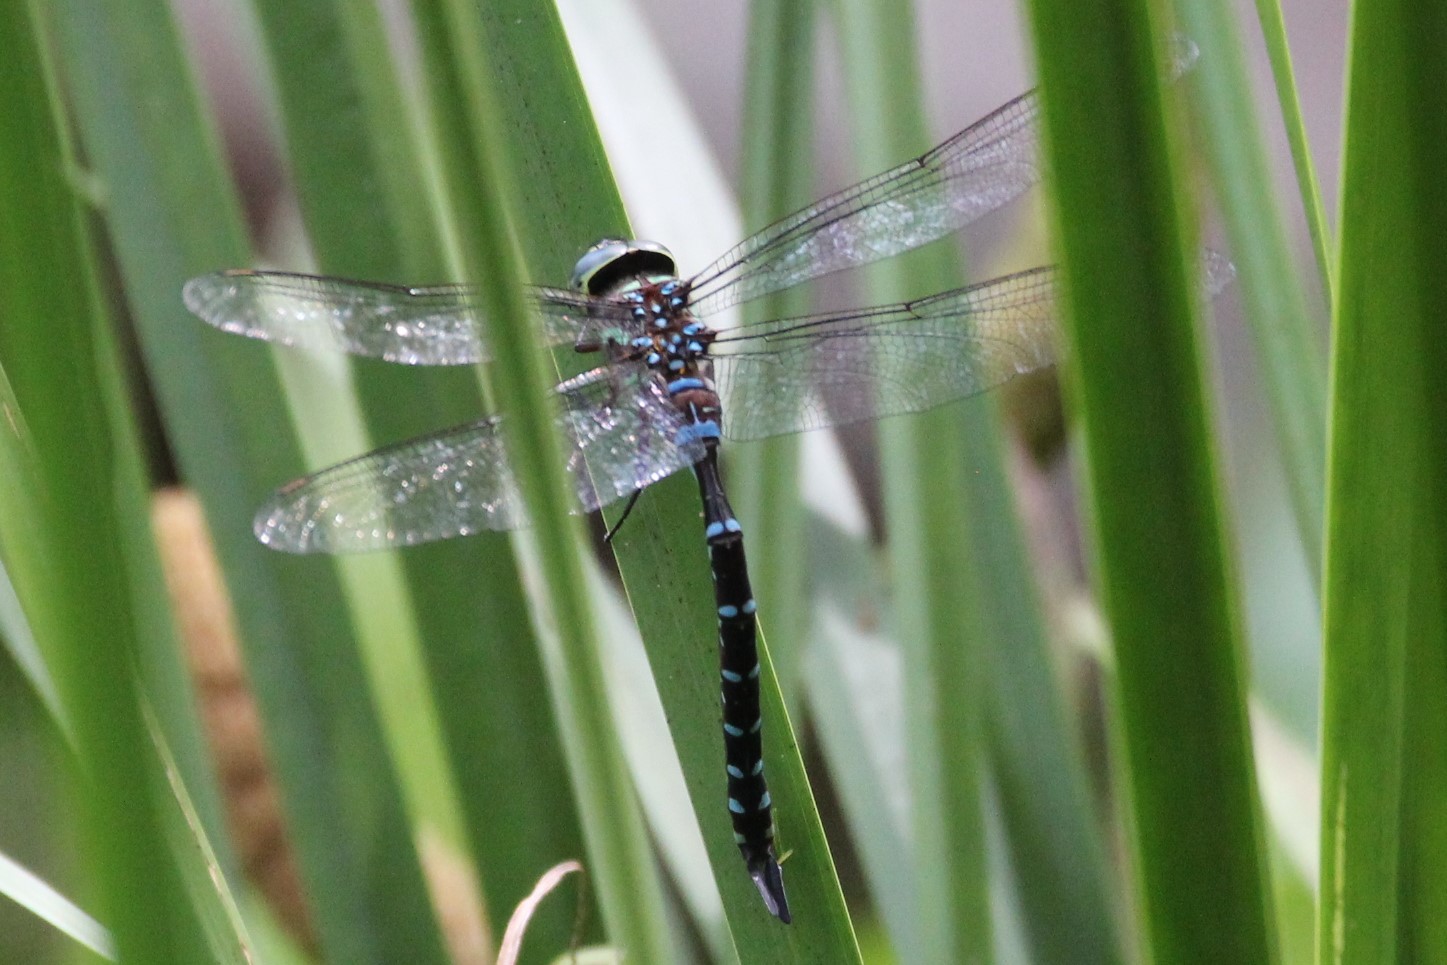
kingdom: Animalia
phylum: Arthropoda
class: Insecta
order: Odonata
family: Aeshnidae
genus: Aeshna
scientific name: Aeshna tuberculifera
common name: Aeschne à tubercules
